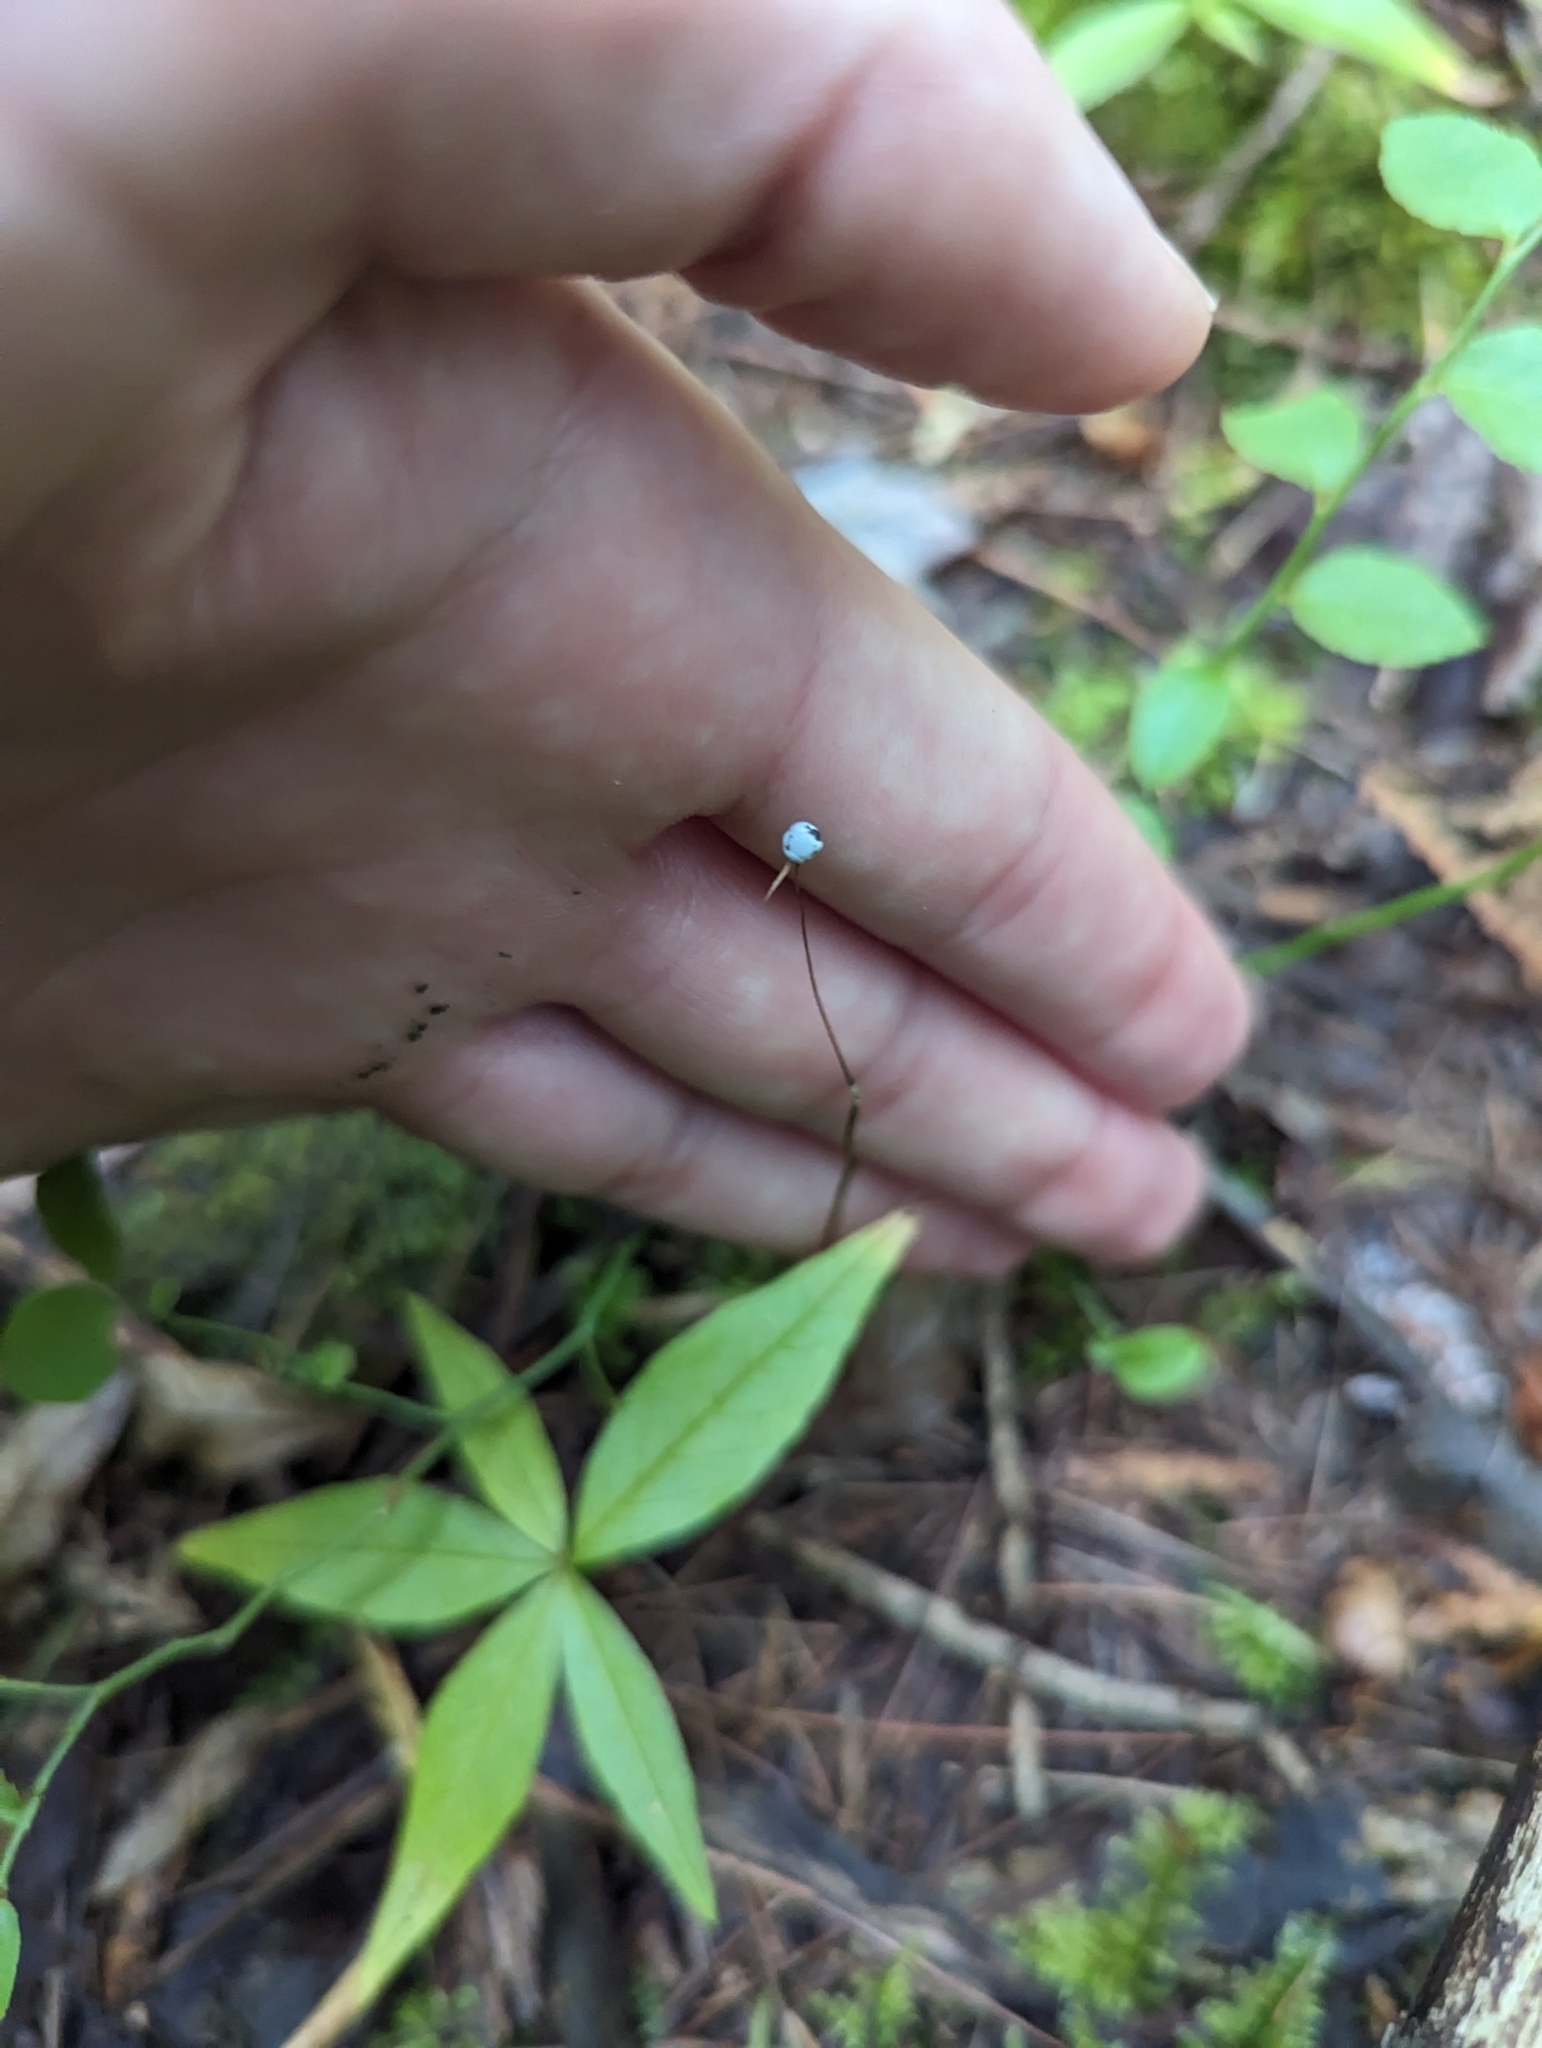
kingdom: Plantae
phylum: Tracheophyta
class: Magnoliopsida
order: Ericales
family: Primulaceae
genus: Lysimachia
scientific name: Lysimachia borealis
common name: American starflower
